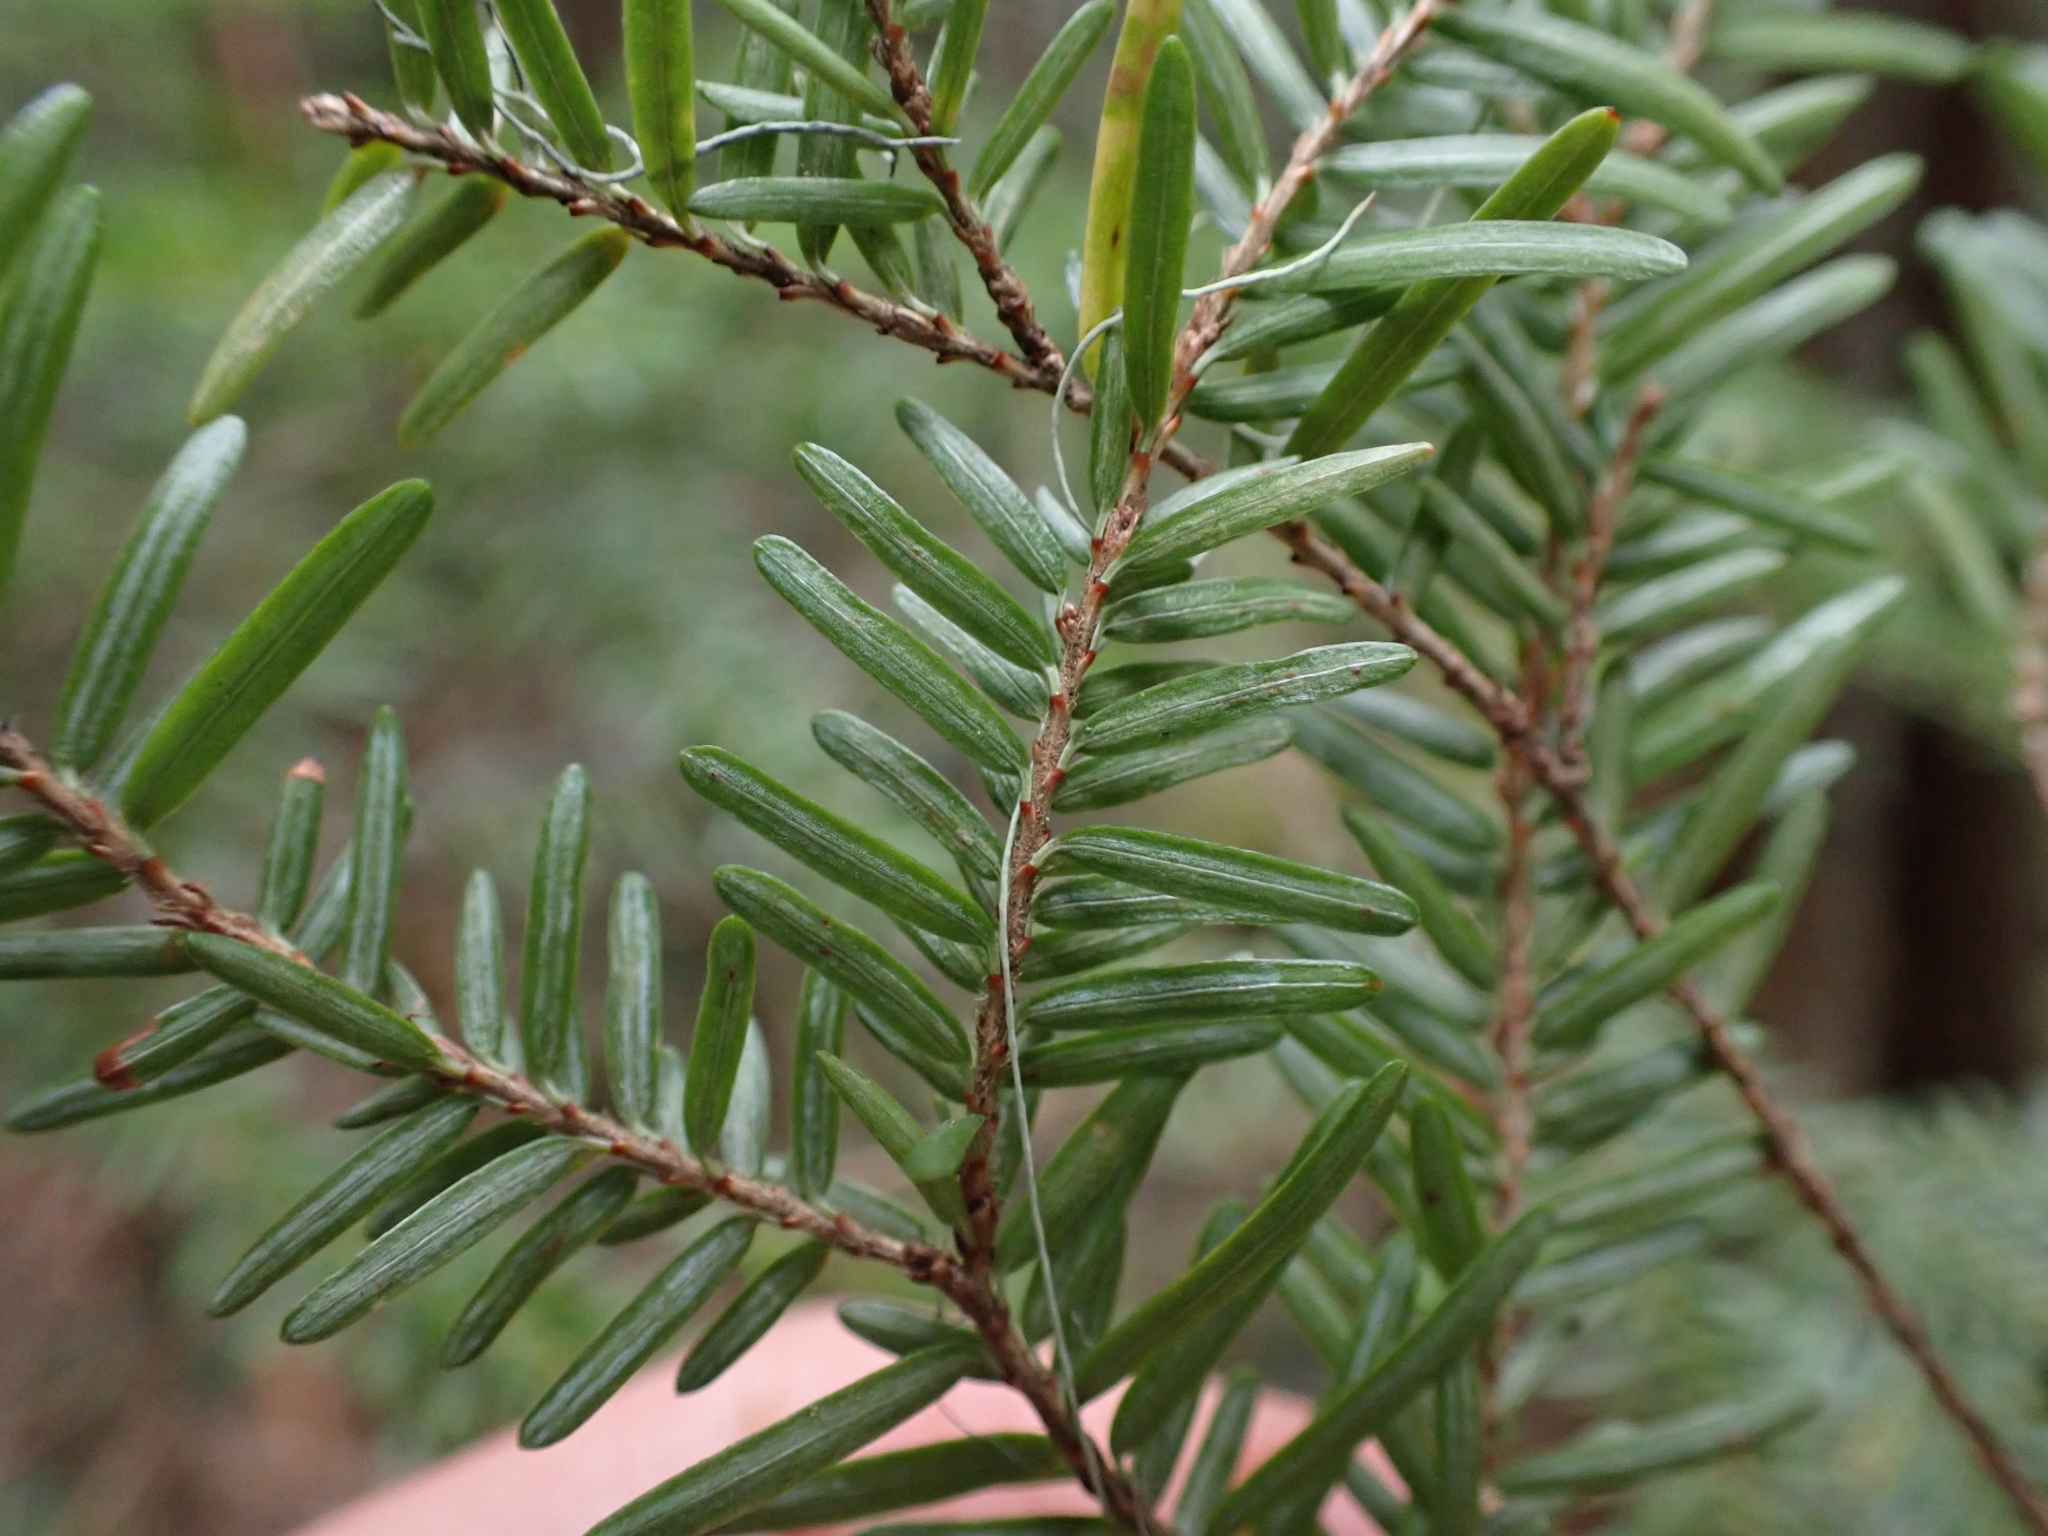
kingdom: Plantae
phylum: Tracheophyta
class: Pinopsida
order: Pinales
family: Pinaceae
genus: Tsuga
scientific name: Tsuga heterophylla
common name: Western hemlock
